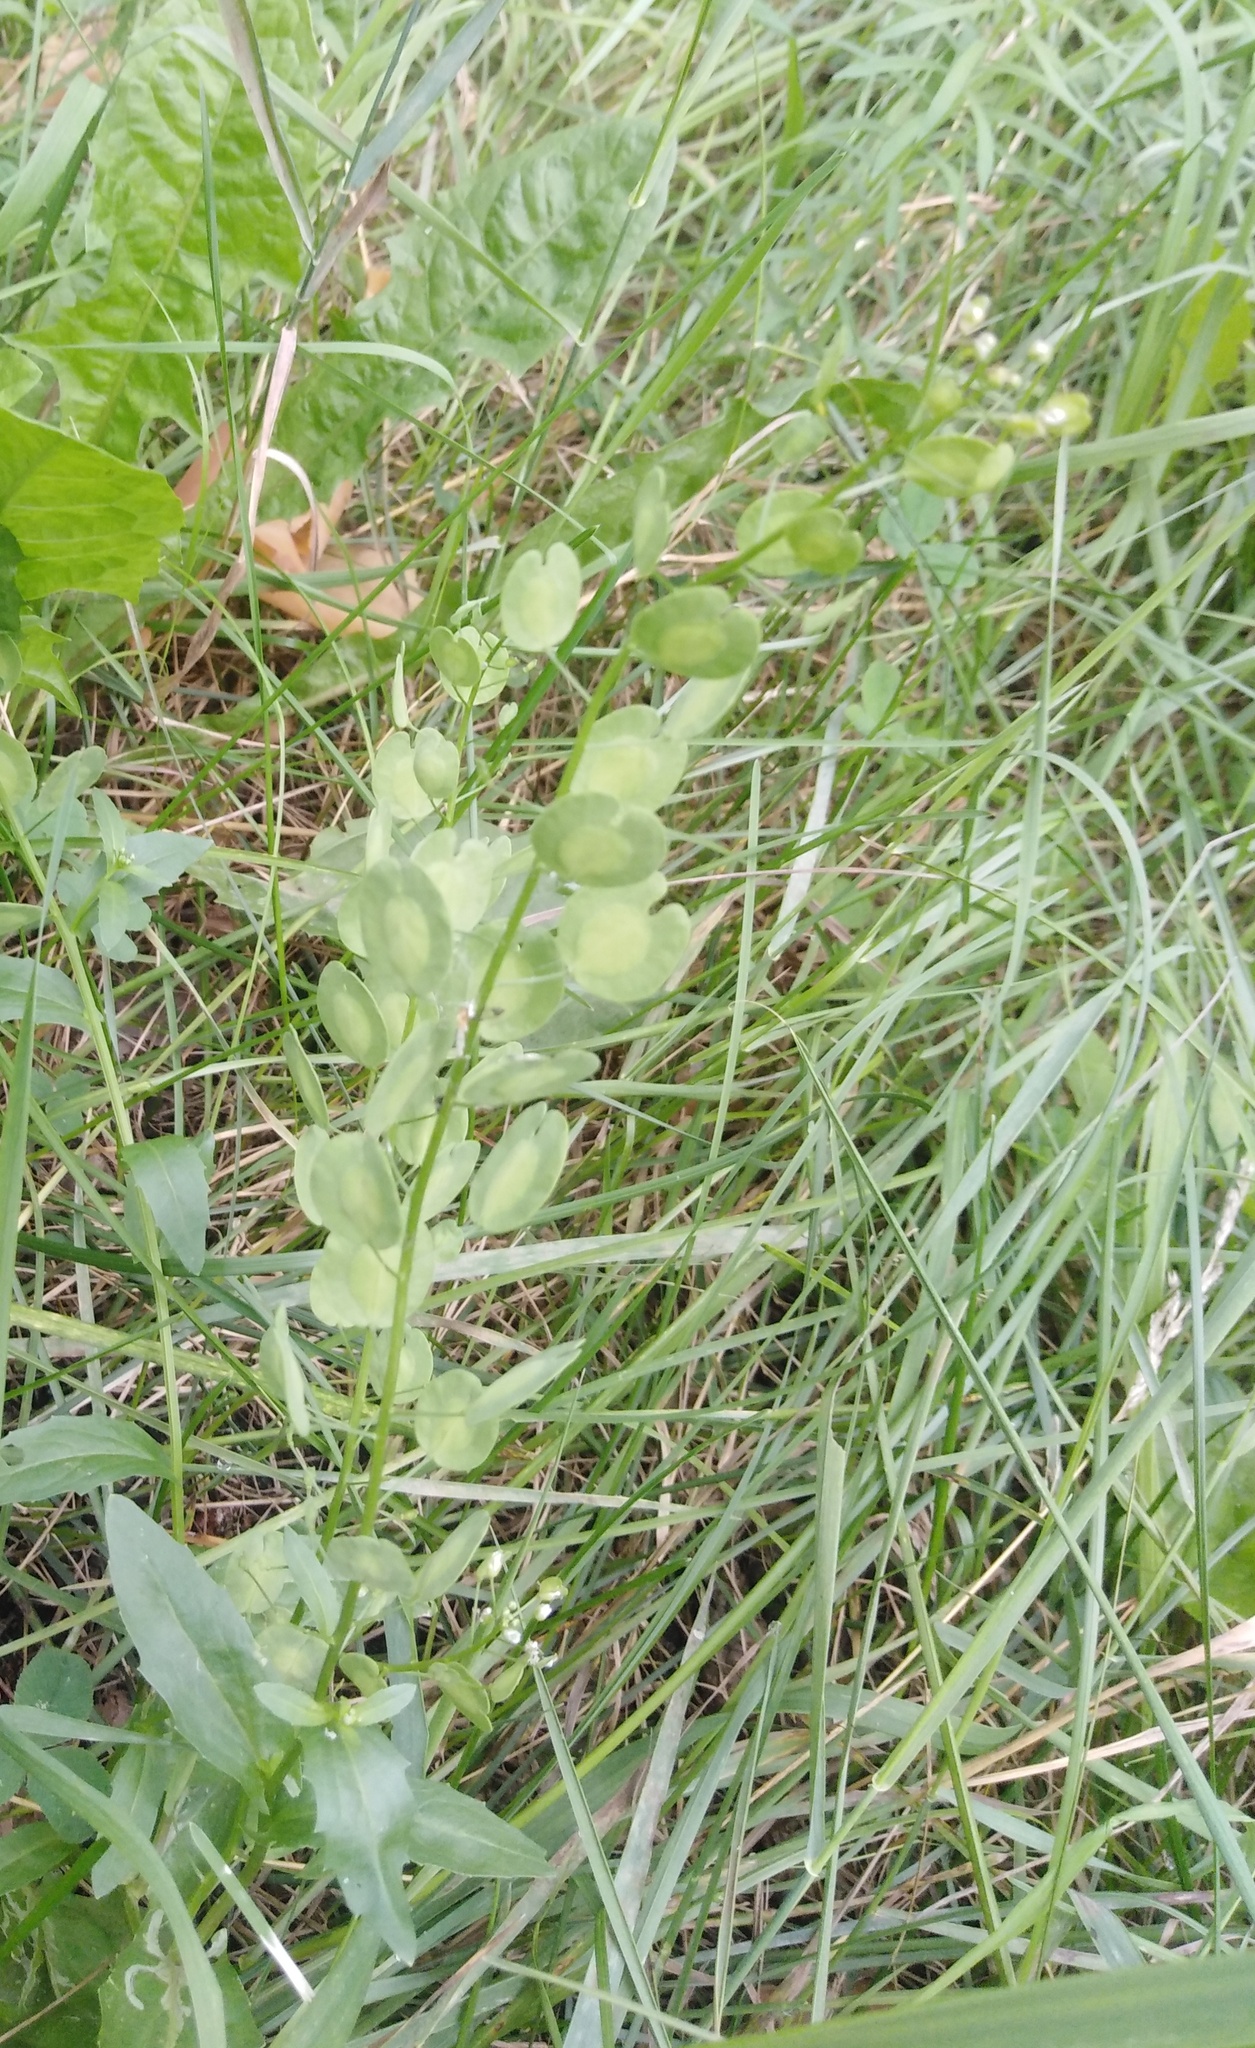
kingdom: Plantae
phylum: Tracheophyta
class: Magnoliopsida
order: Brassicales
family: Brassicaceae
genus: Thlaspi
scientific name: Thlaspi arvense
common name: Field pennycress
